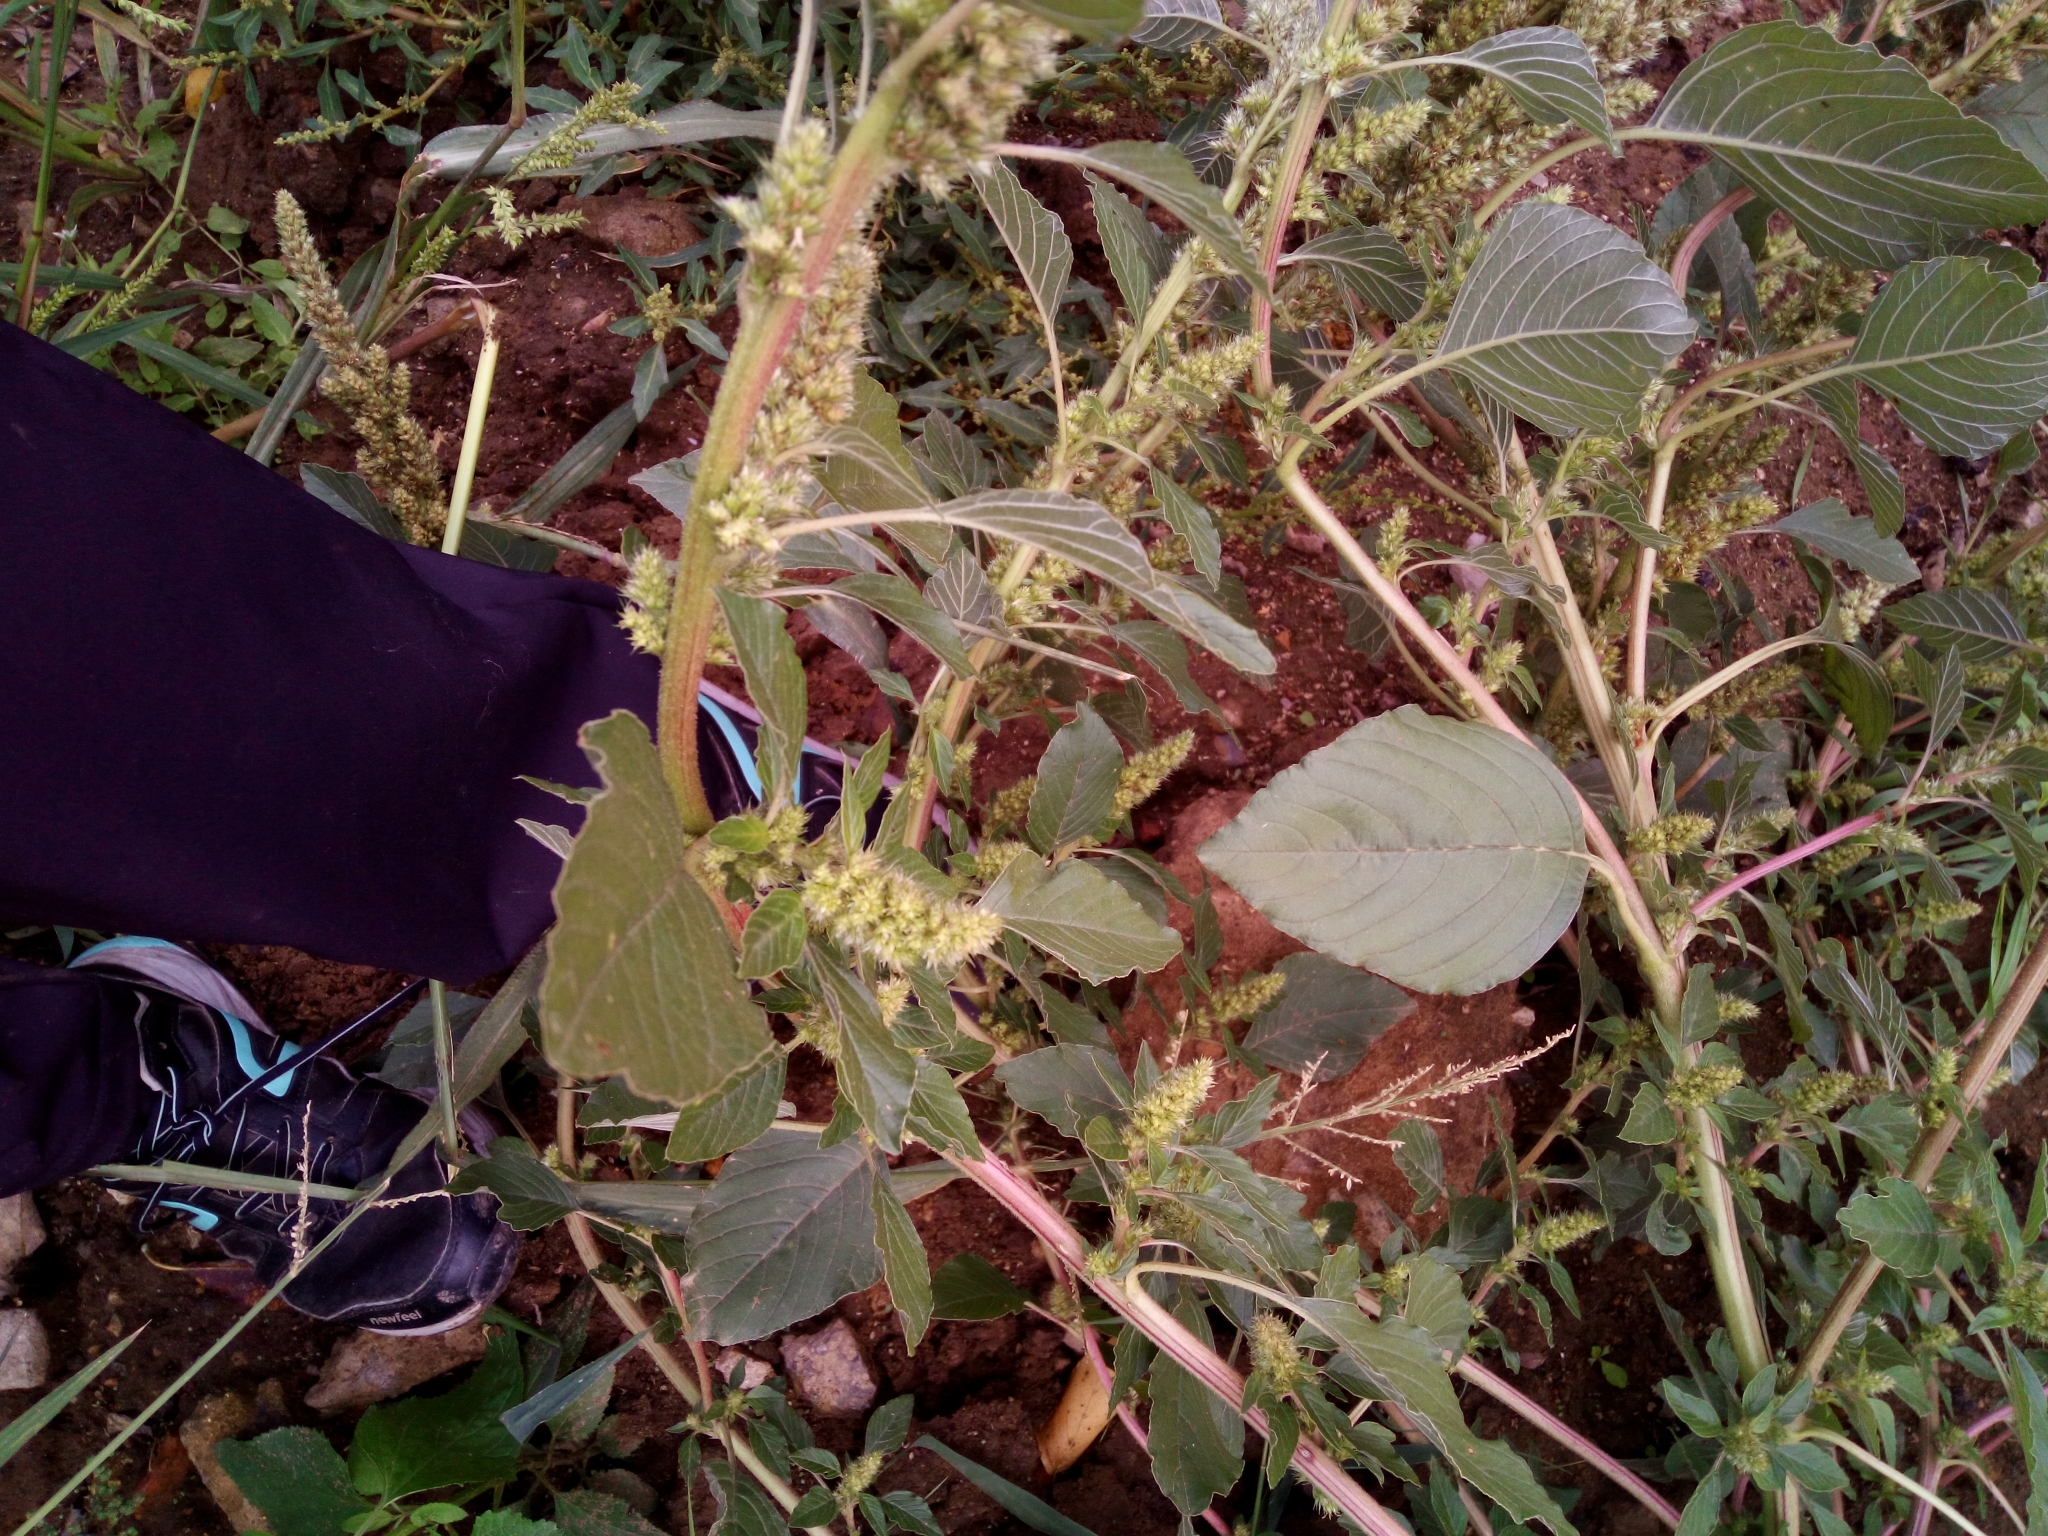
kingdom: Plantae
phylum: Tracheophyta
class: Magnoliopsida
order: Caryophyllales
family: Amaranthaceae
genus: Amaranthus
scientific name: Amaranthus retroflexus
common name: Redroot amaranth
